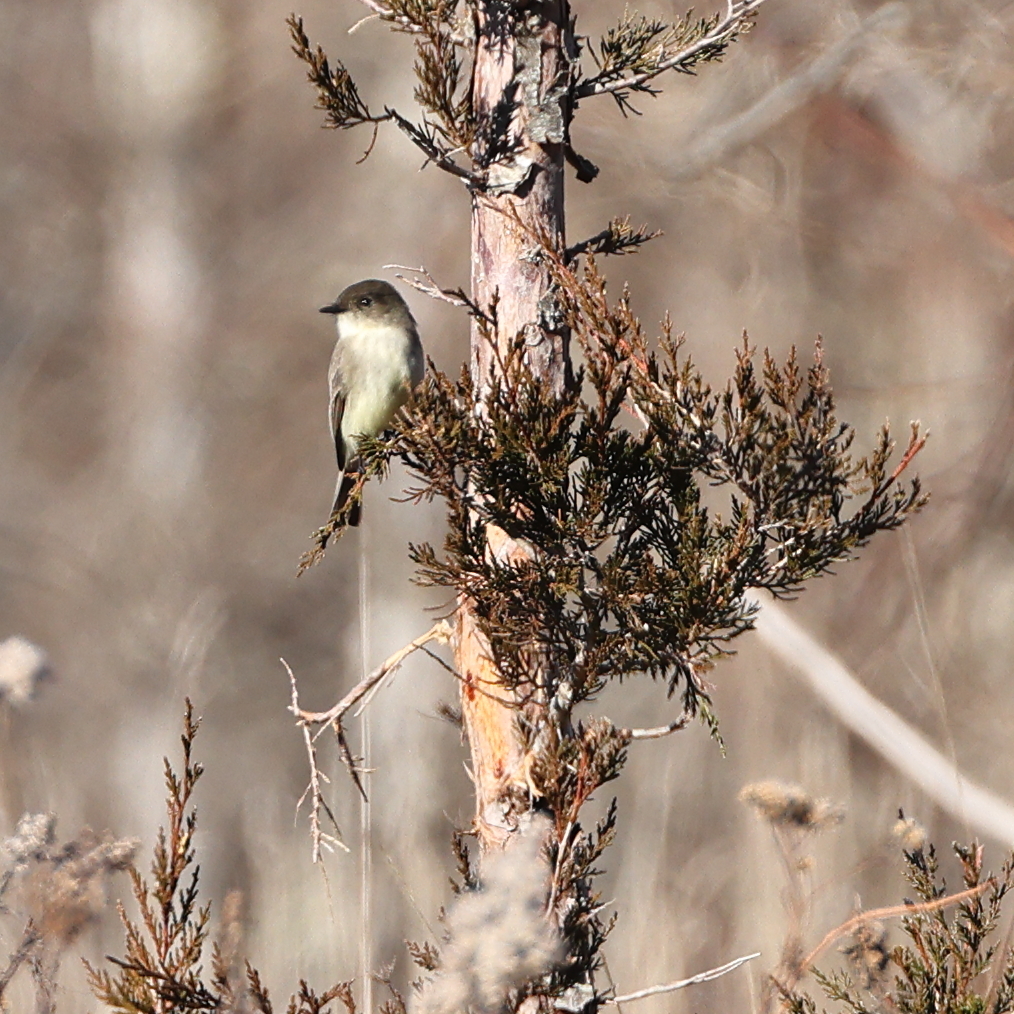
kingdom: Animalia
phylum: Chordata
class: Aves
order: Passeriformes
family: Tyrannidae
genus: Sayornis
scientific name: Sayornis phoebe
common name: Eastern phoebe
